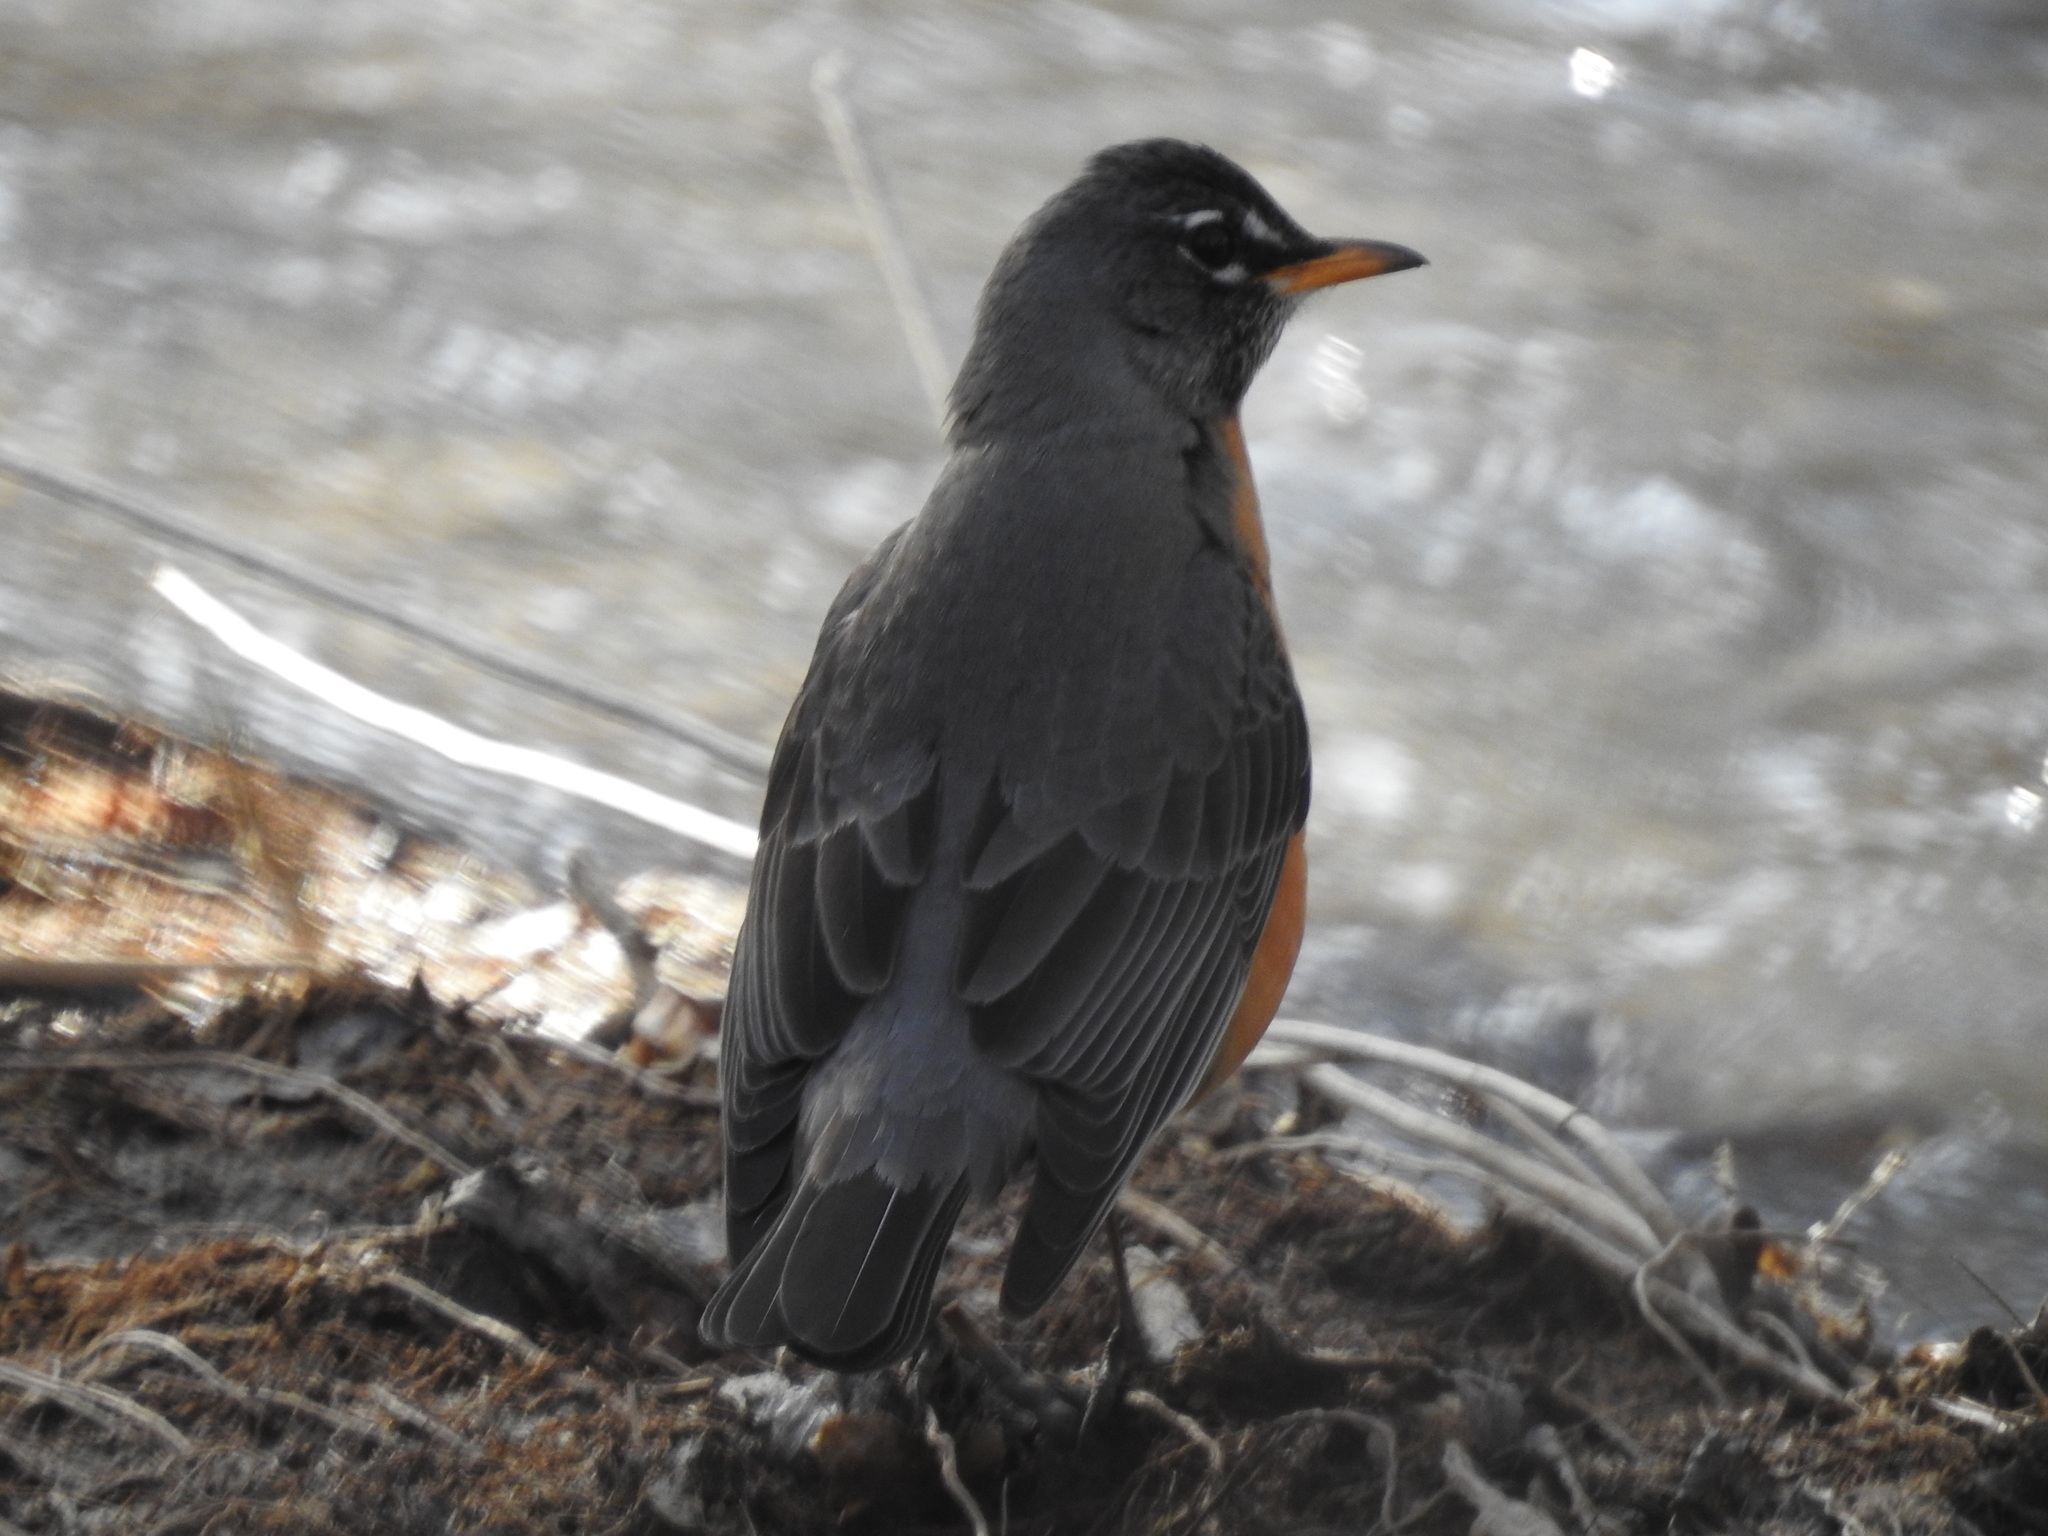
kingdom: Animalia
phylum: Chordata
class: Aves
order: Passeriformes
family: Turdidae
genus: Turdus
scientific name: Turdus migratorius
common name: American robin
